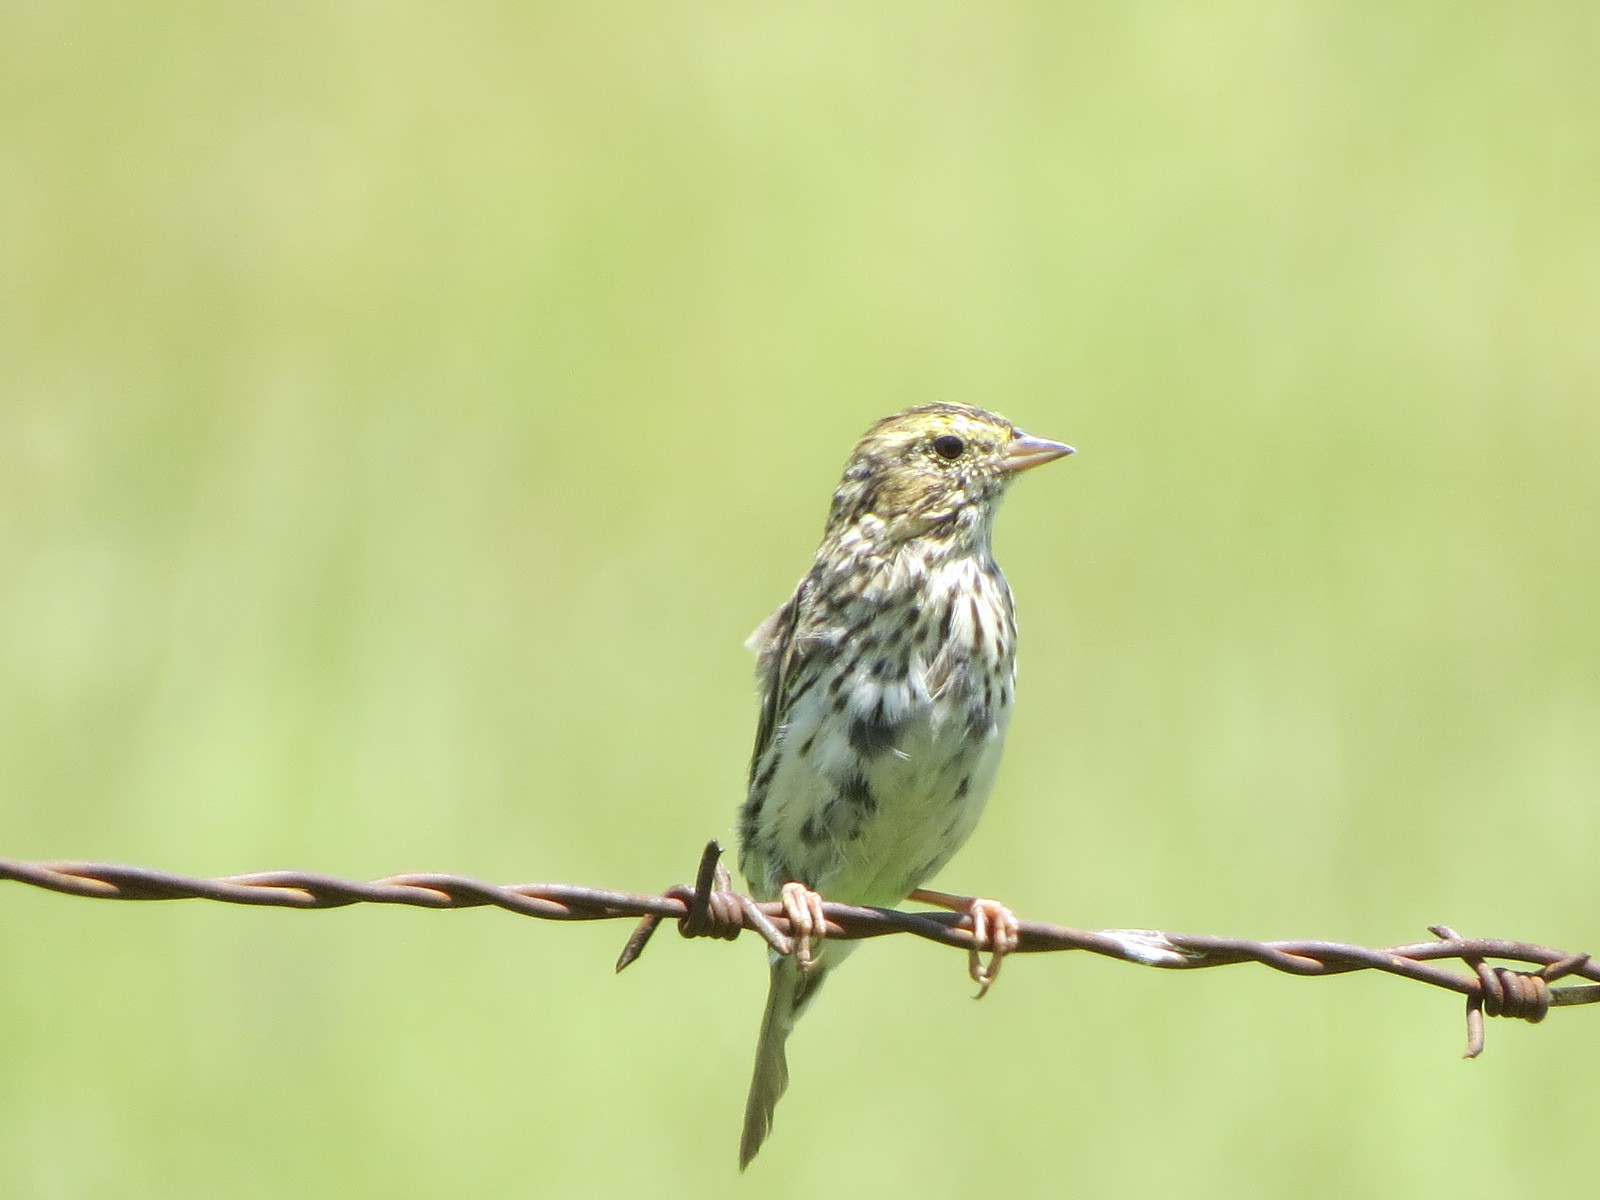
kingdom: Animalia
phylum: Chordata
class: Aves
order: Passeriformes
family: Passerellidae
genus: Passerculus
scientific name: Passerculus sandwichensis
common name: Savannah sparrow
